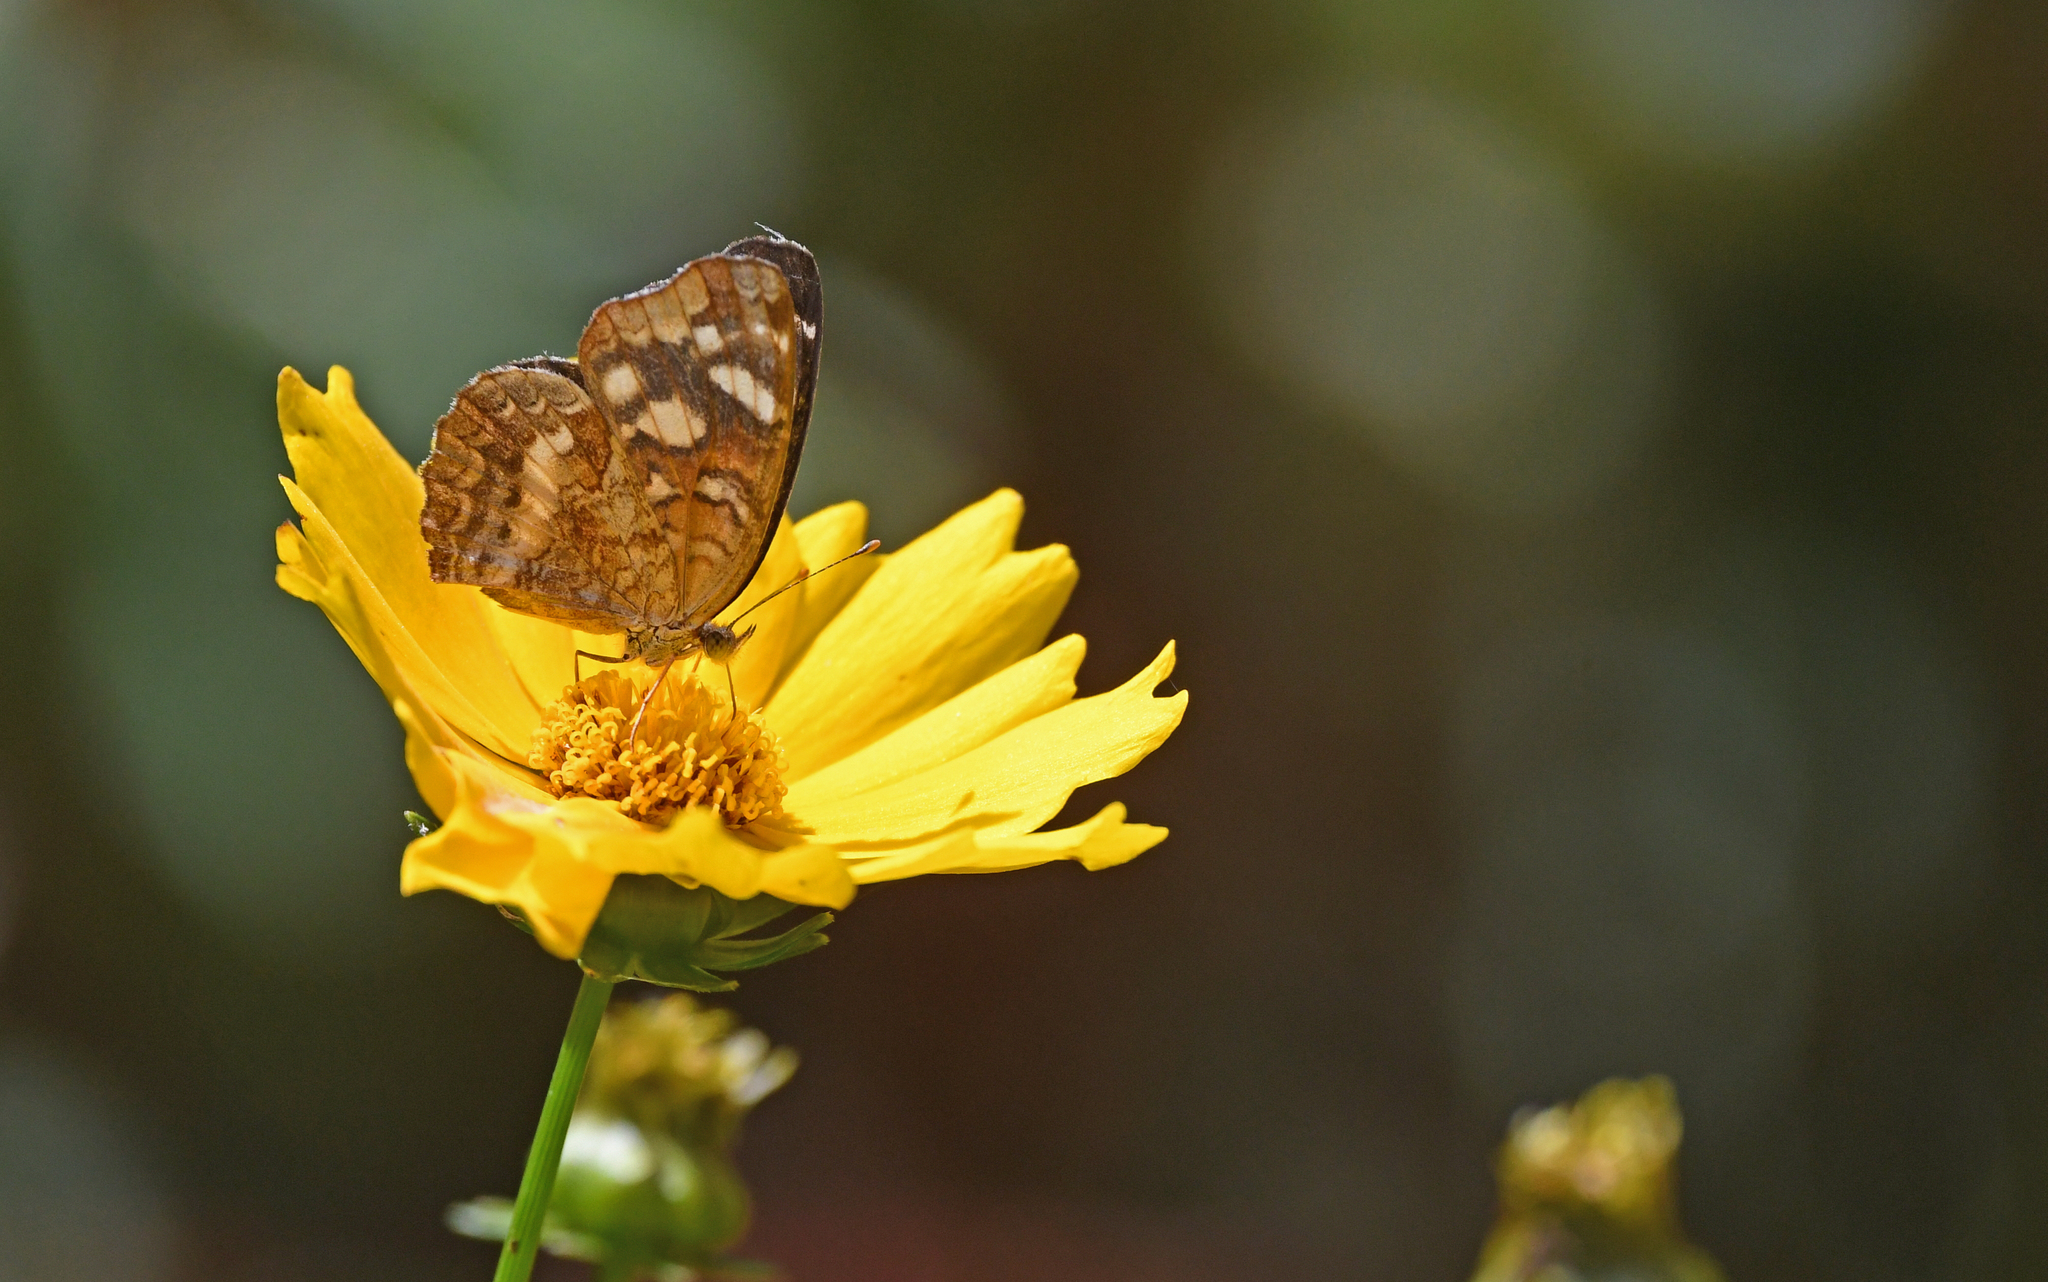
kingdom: Animalia
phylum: Arthropoda
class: Insecta
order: Lepidoptera
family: Nymphalidae
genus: Anthanassa
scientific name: Anthanassa drusilla
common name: Orange-patched crescent
